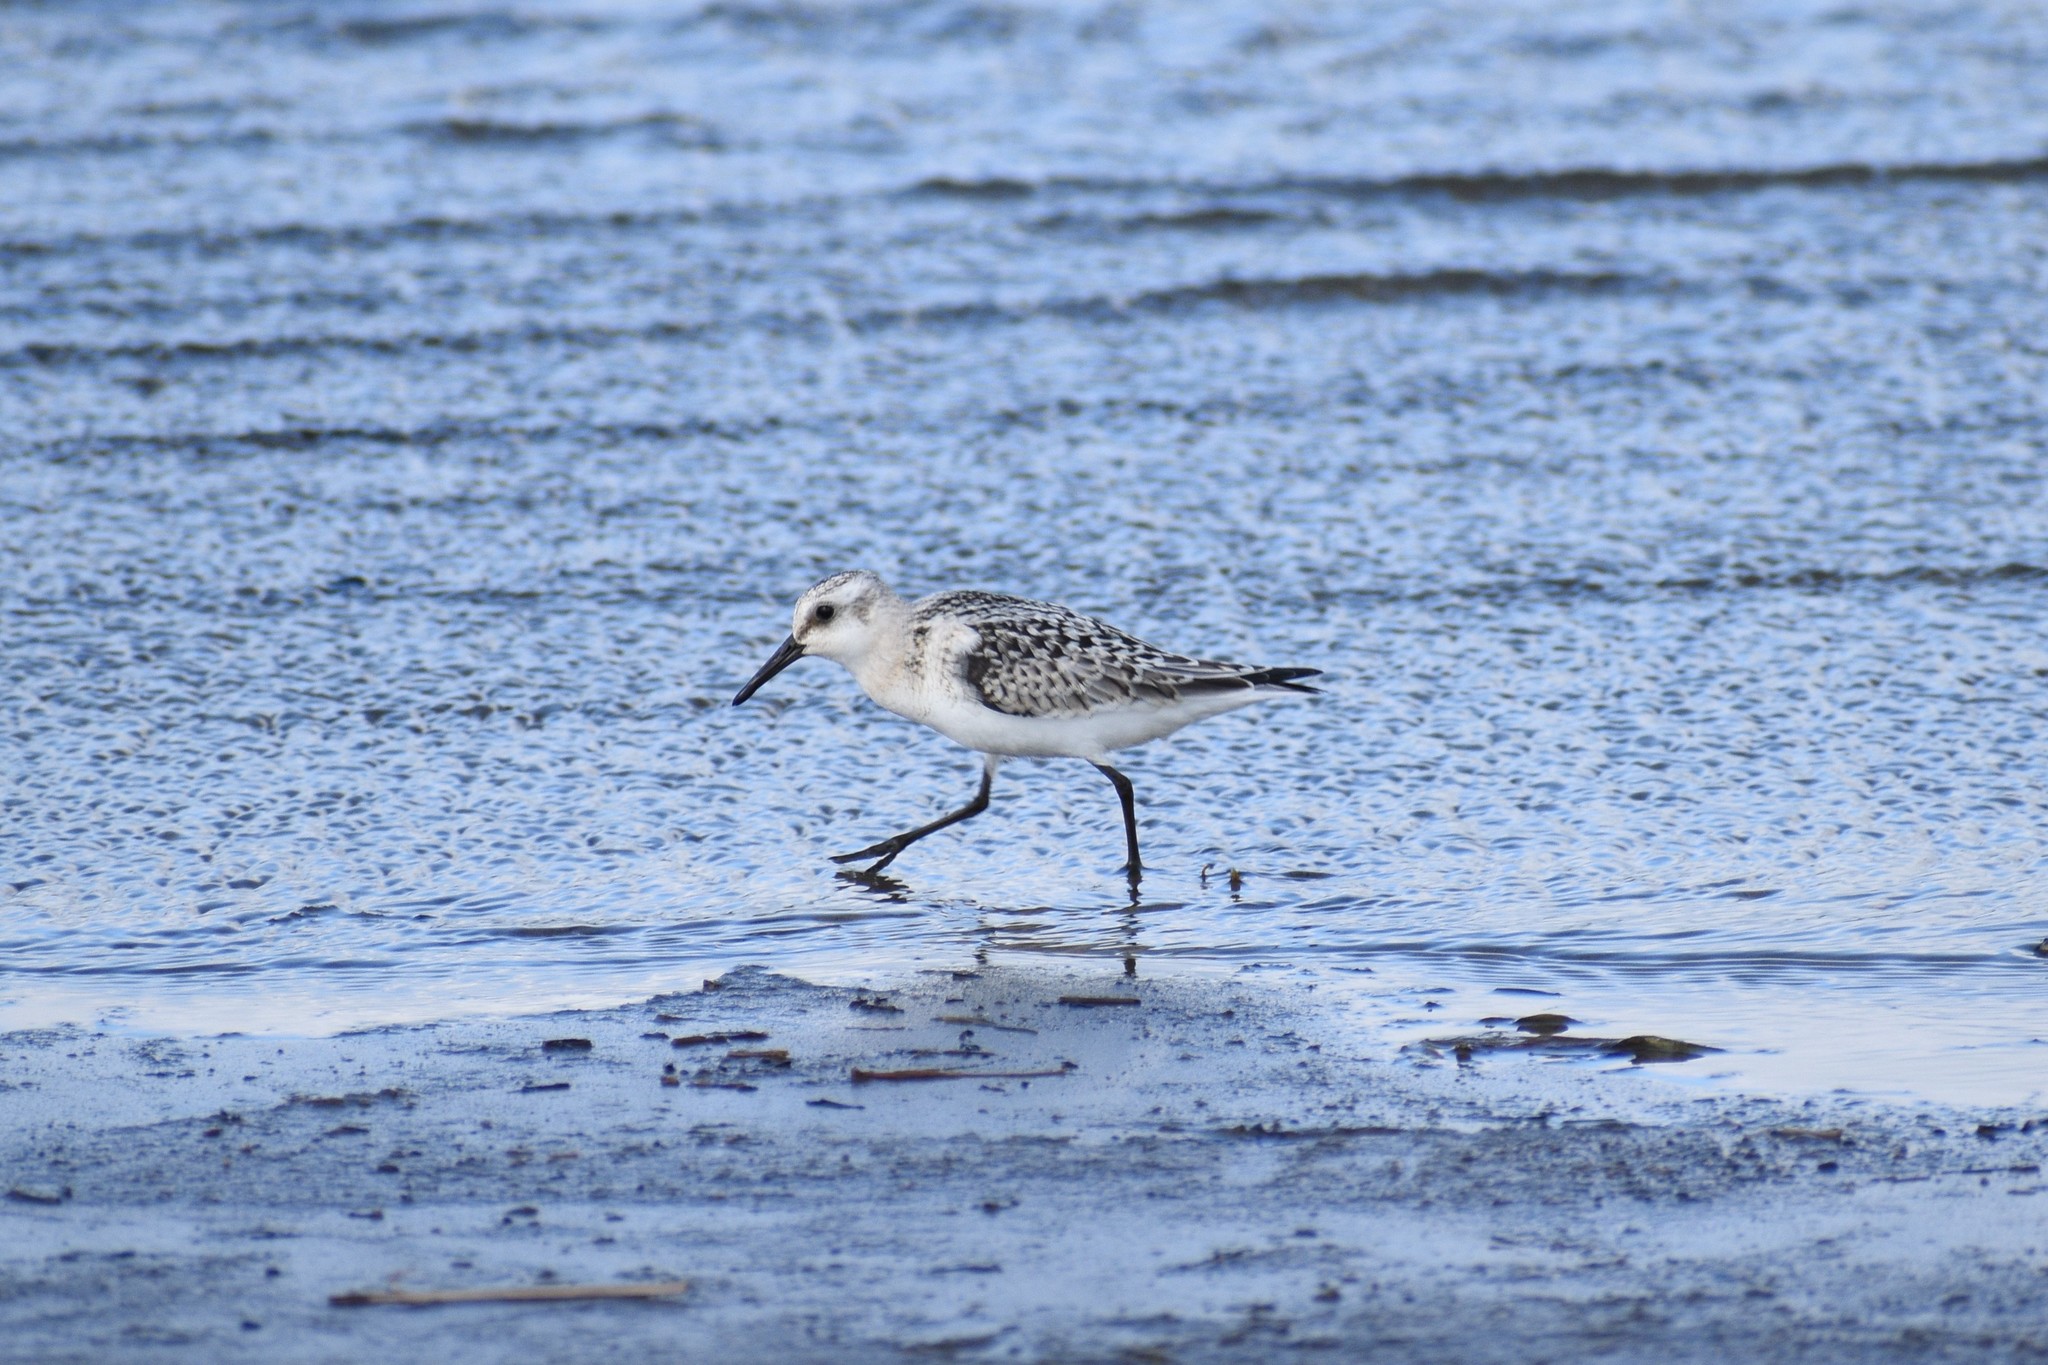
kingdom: Animalia
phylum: Chordata
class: Aves
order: Charadriiformes
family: Scolopacidae
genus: Calidris
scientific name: Calidris alba
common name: Sanderling
